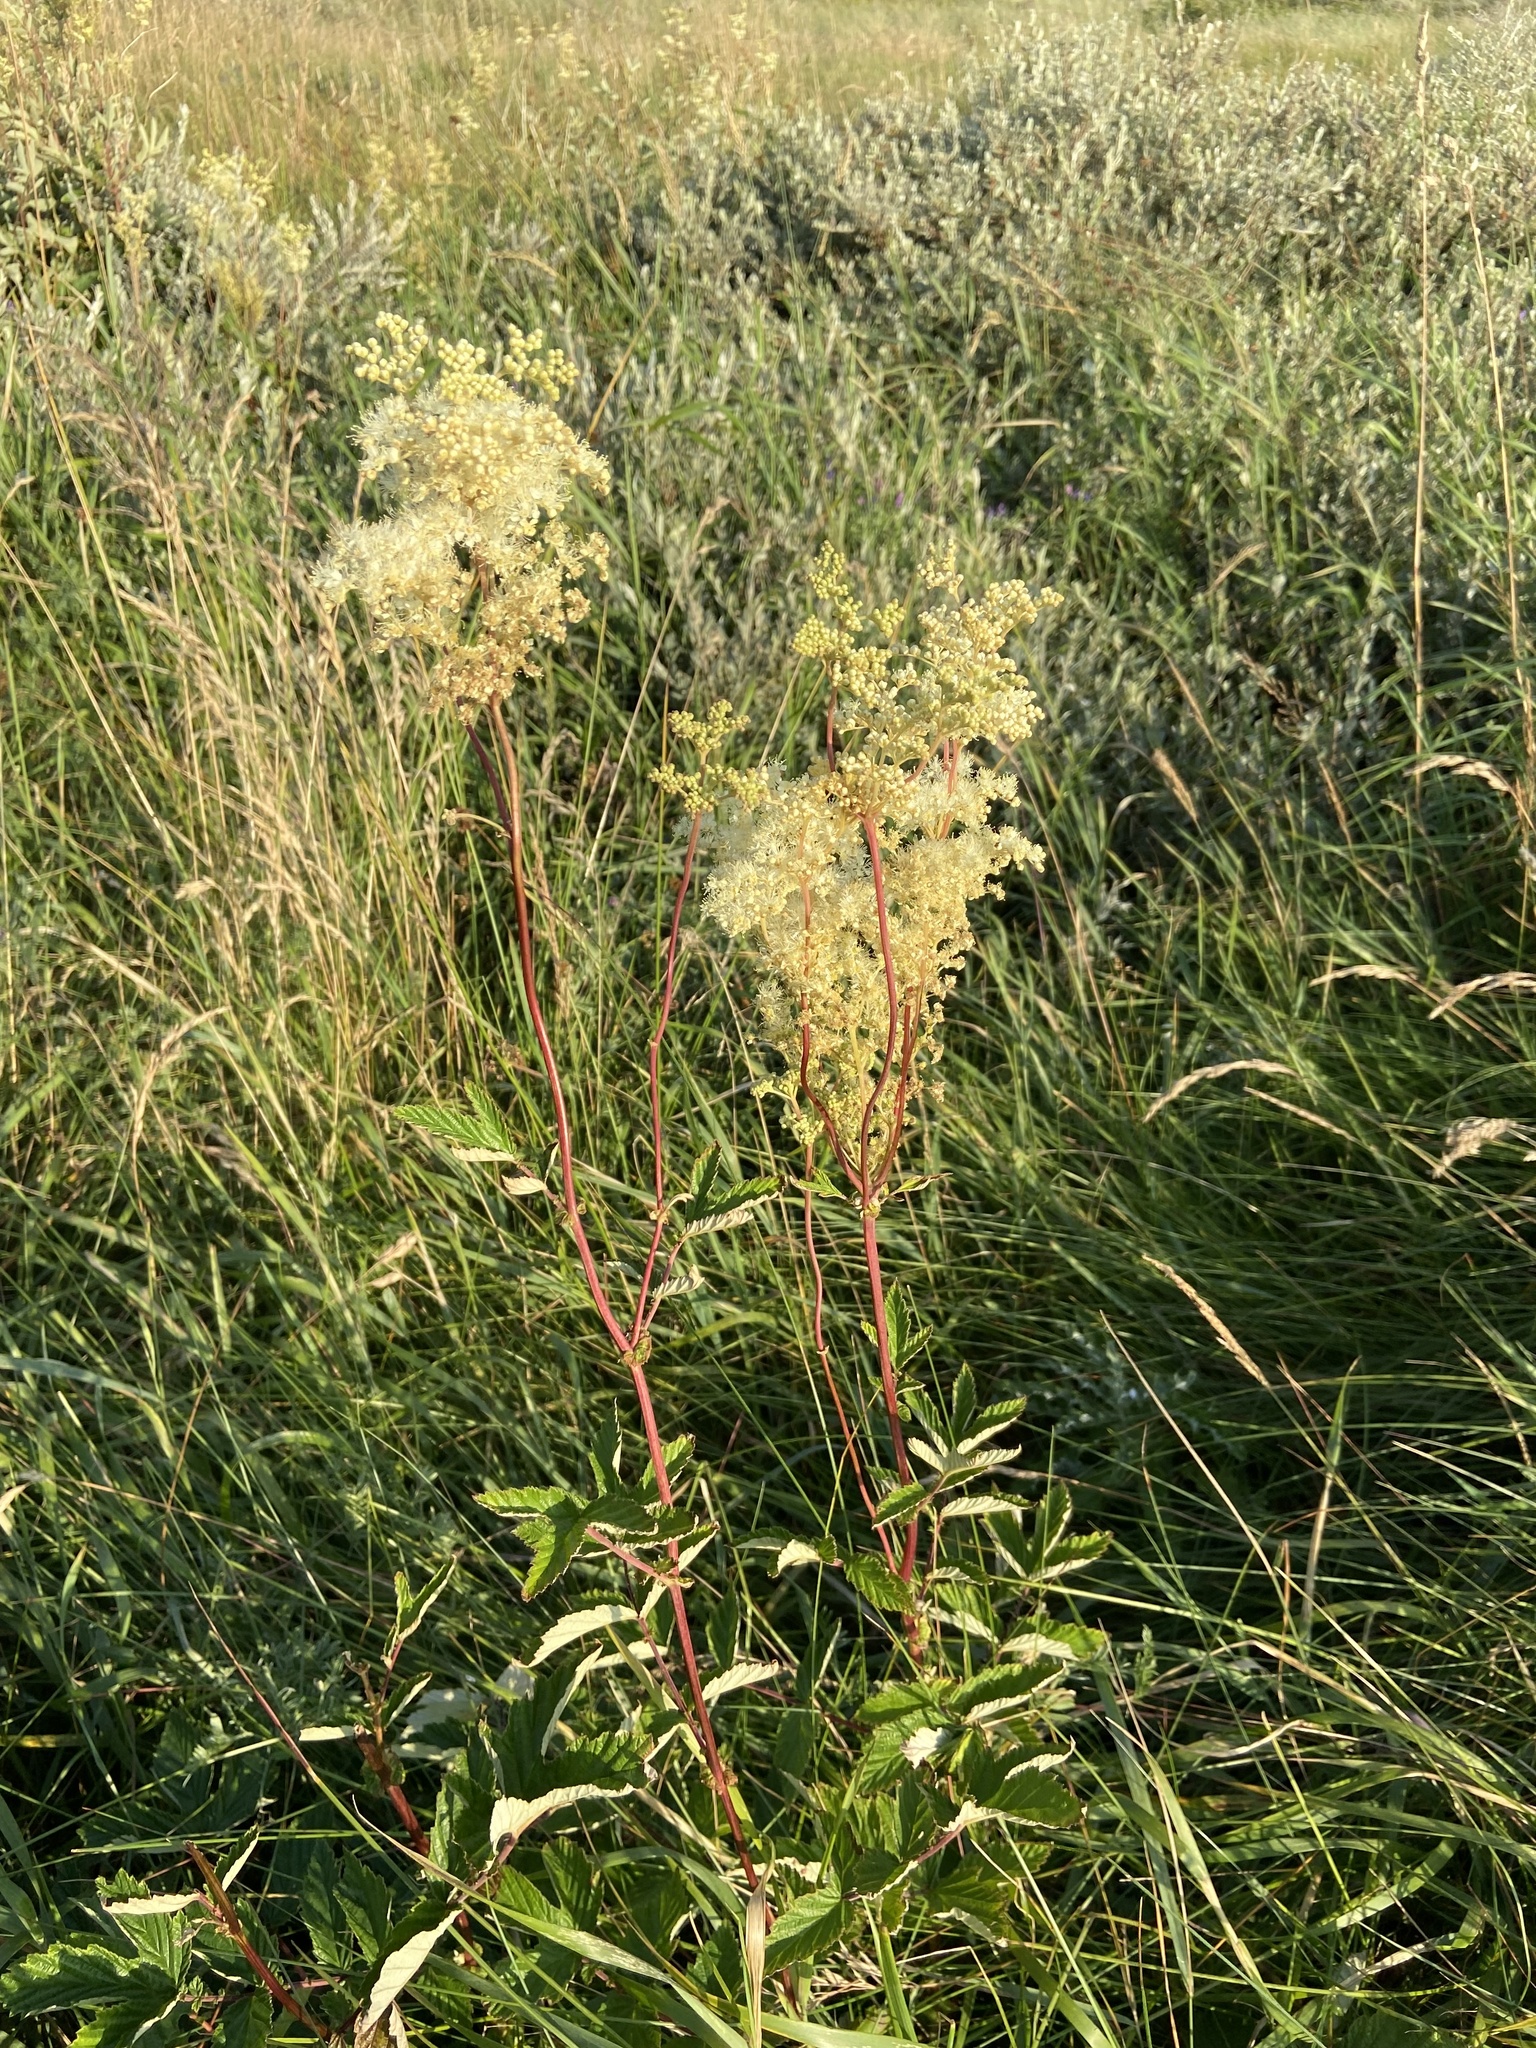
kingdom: Plantae
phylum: Tracheophyta
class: Magnoliopsida
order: Rosales
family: Rosaceae
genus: Filipendula
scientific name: Filipendula ulmaria
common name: Meadowsweet
